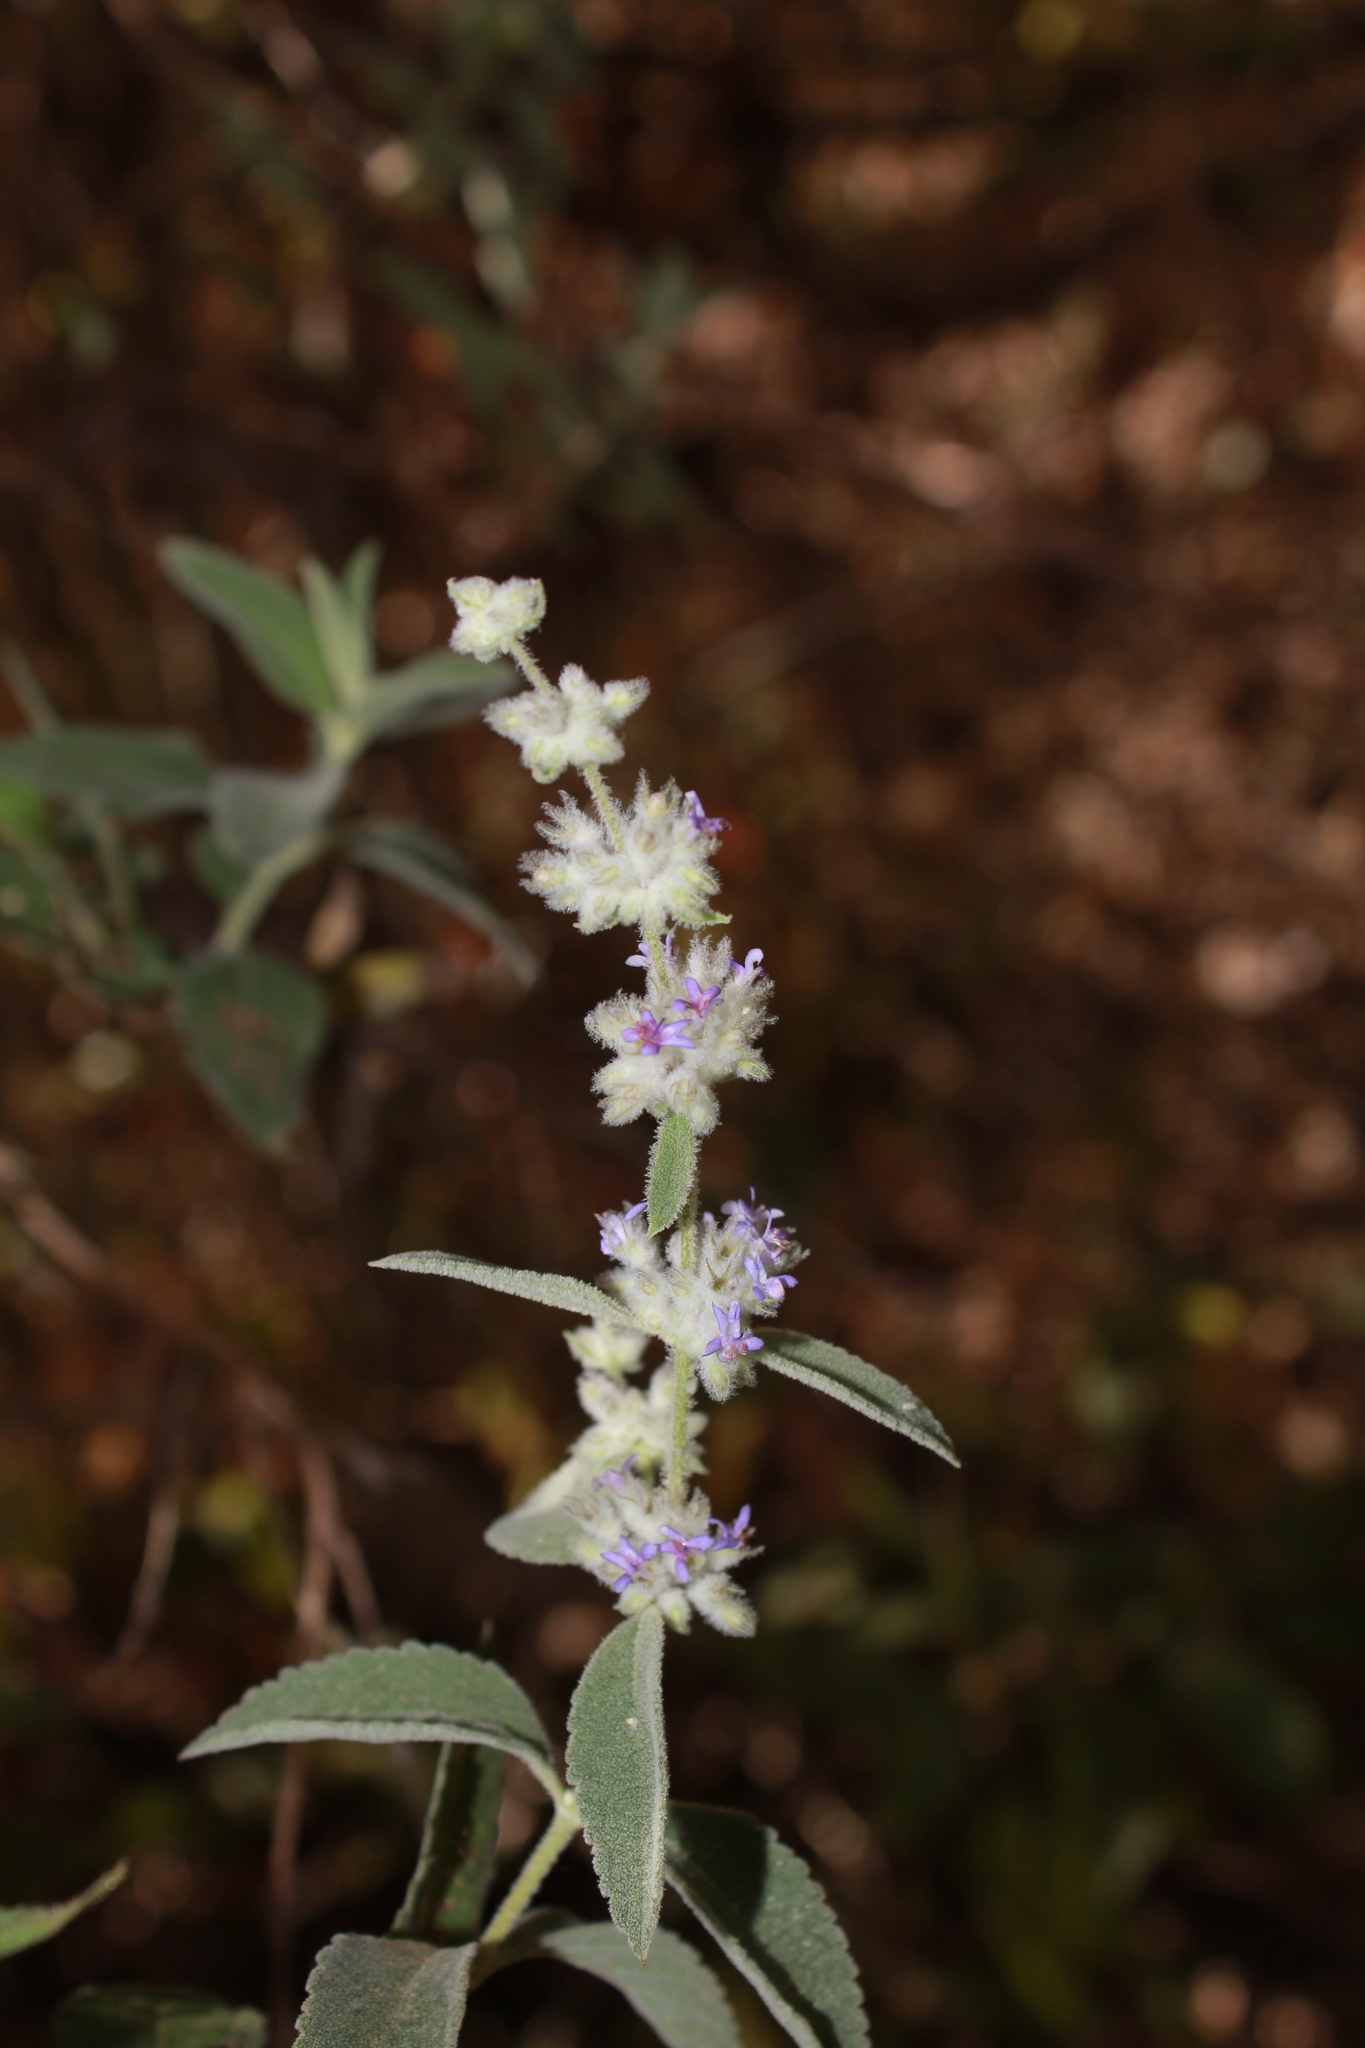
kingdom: Plantae
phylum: Tracheophyta
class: Magnoliopsida
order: Lamiales
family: Lamiaceae
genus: Condea
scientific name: Condea albida
